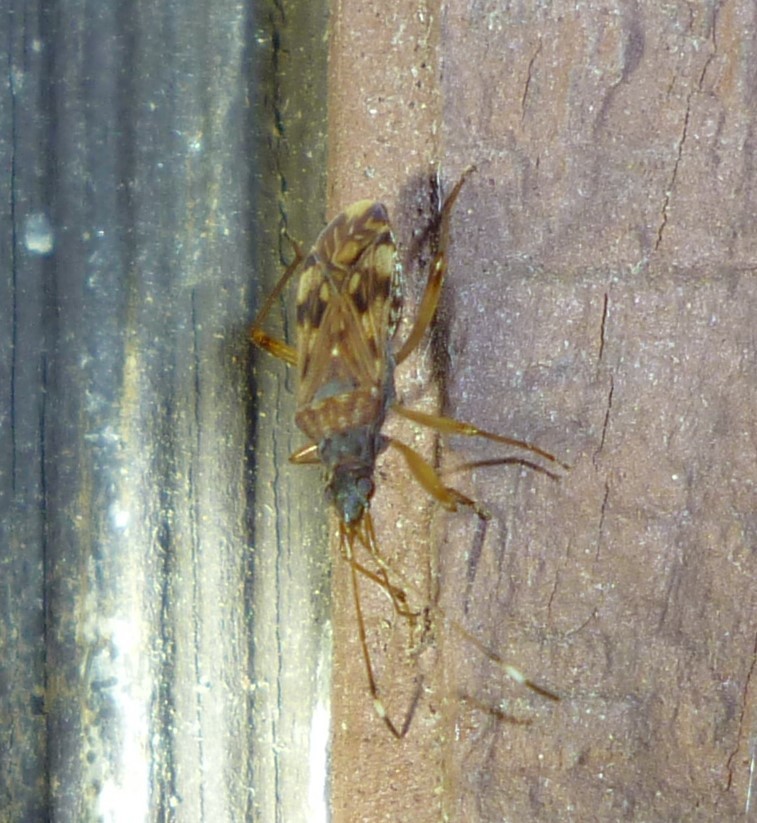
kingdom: Animalia
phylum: Arthropoda
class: Insecta
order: Hemiptera
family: Rhyparochromidae
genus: Ozophora
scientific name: Ozophora picturata
